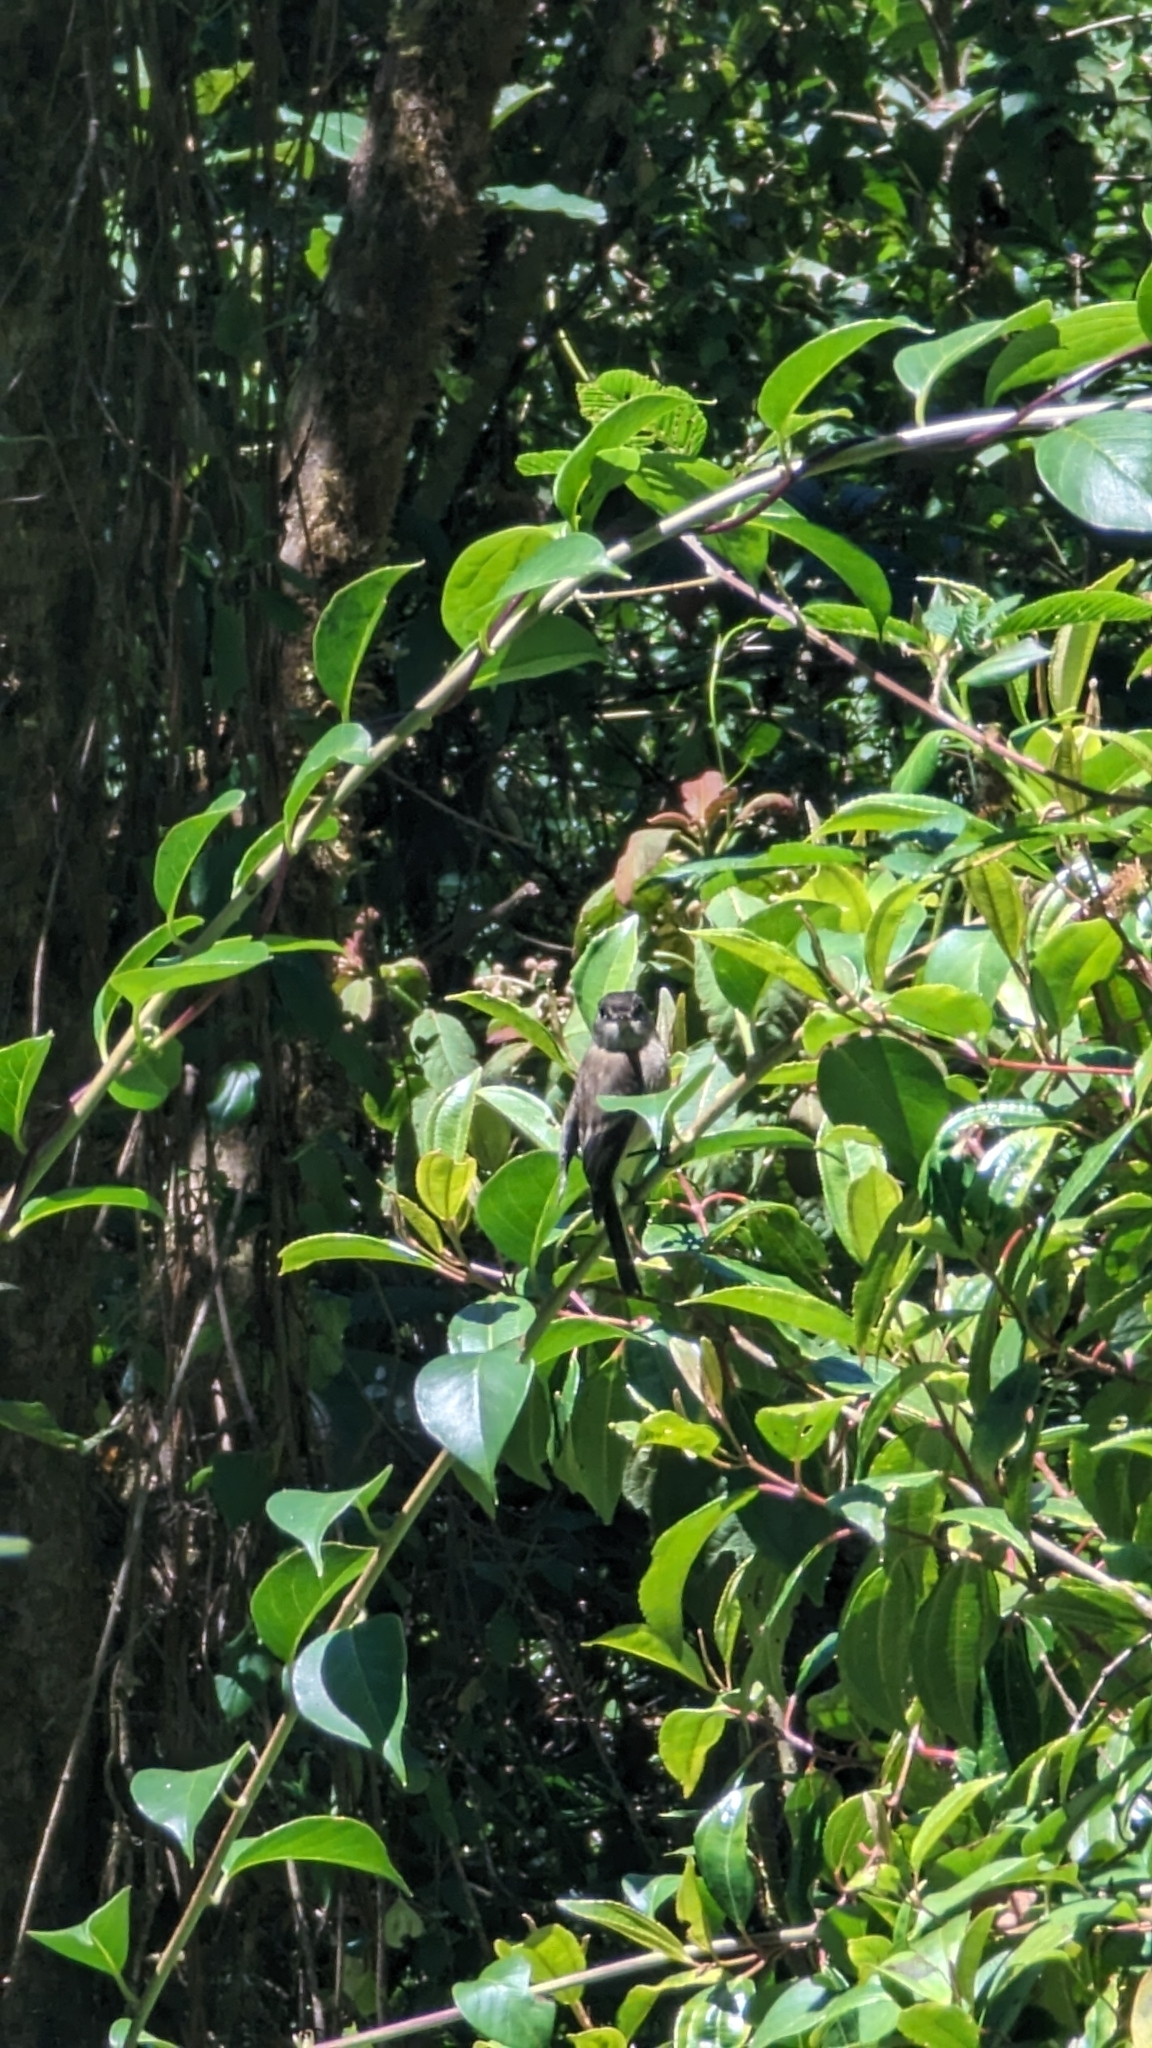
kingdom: Animalia
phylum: Chordata
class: Aves
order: Passeriformes
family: Tyrannidae
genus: Empidonax
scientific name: Empidonax atriceps
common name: Black-capped flycatcher
